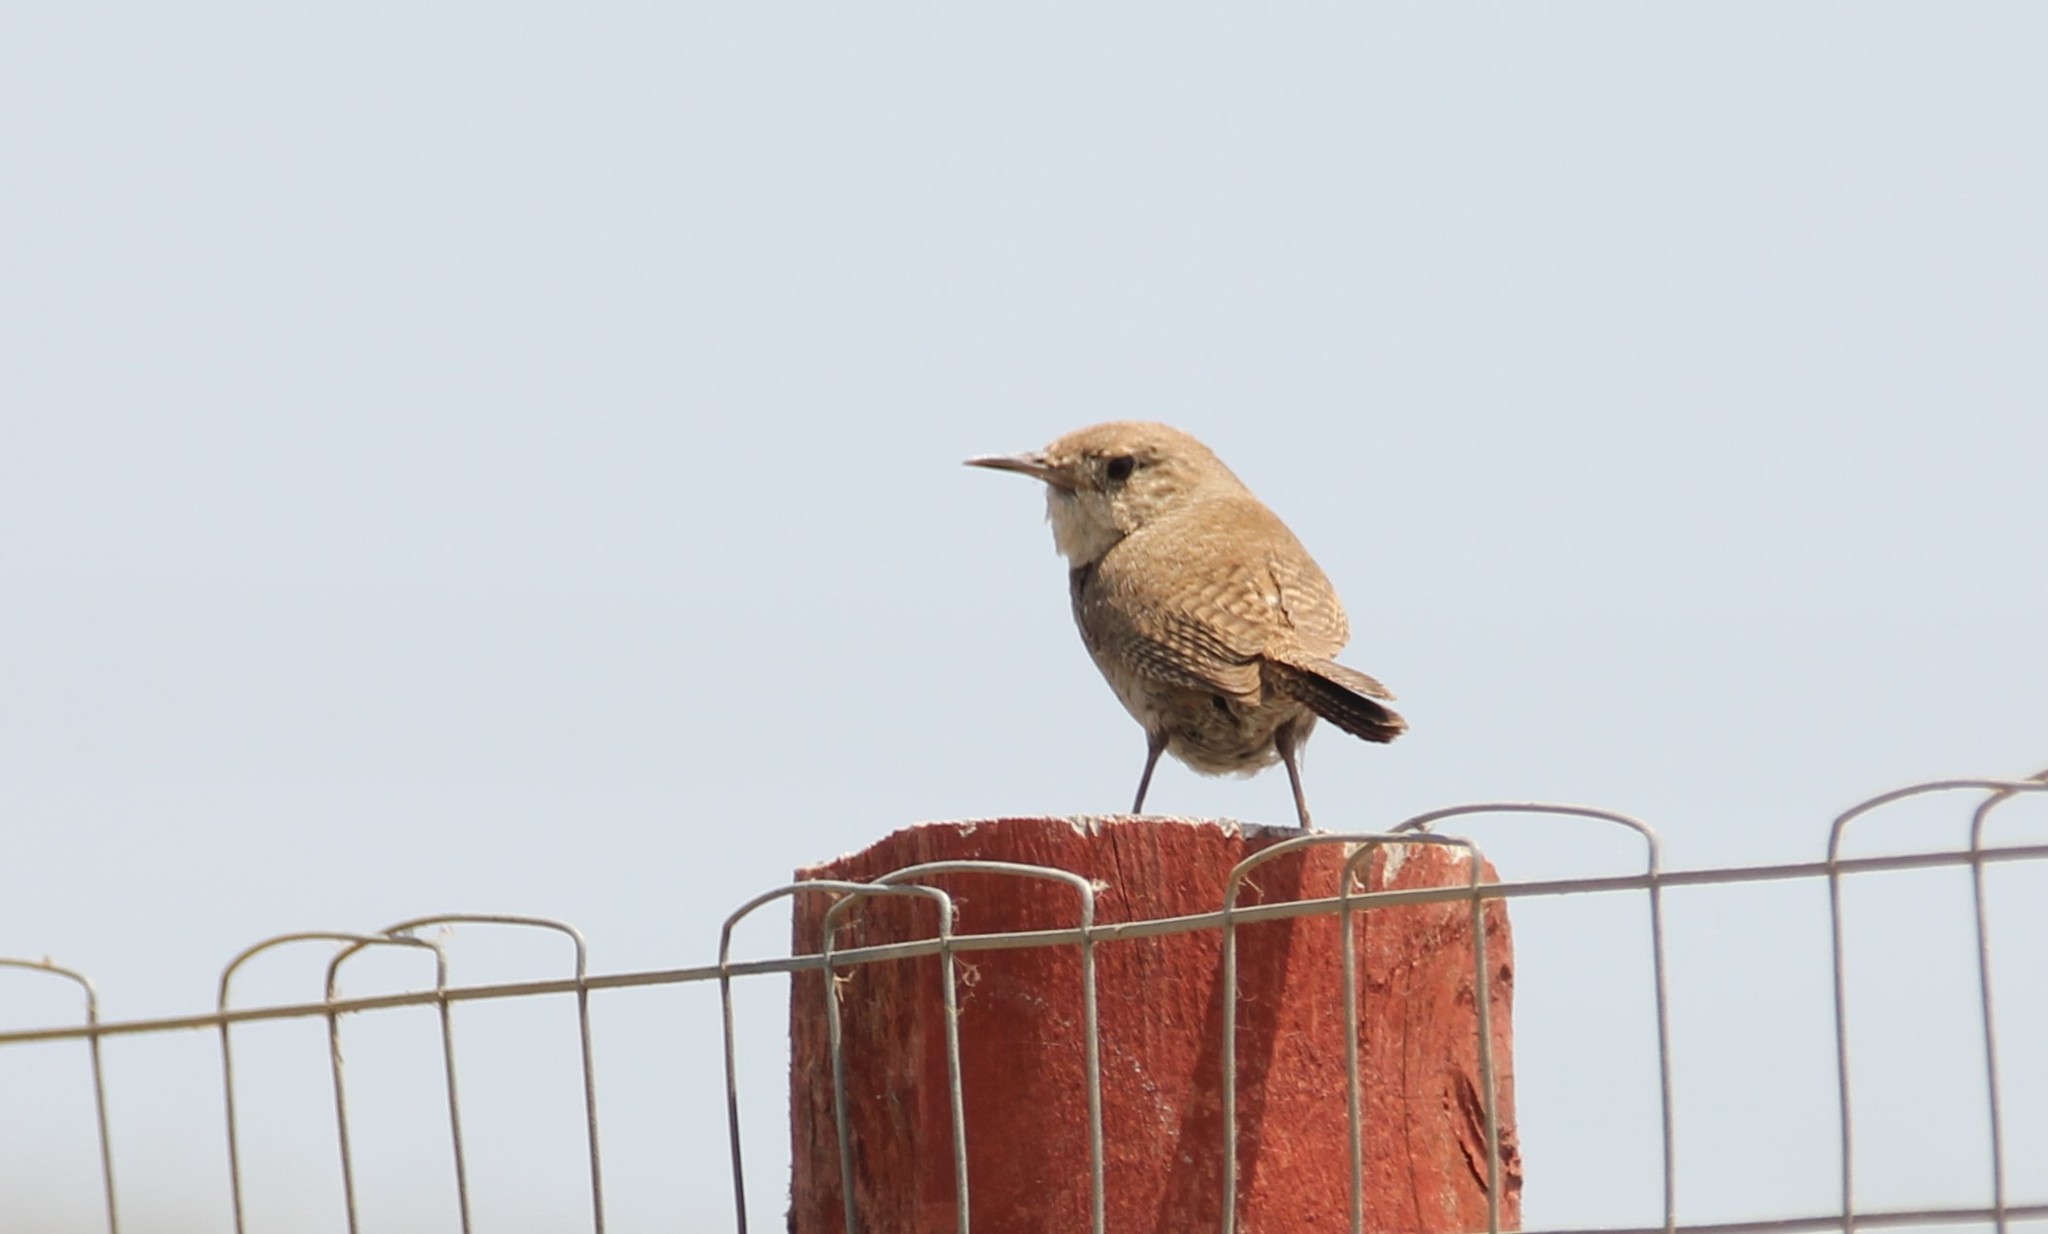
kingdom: Animalia
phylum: Chordata
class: Aves
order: Passeriformes
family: Troglodytidae
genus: Troglodytes
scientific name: Troglodytes aedon
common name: House wren
